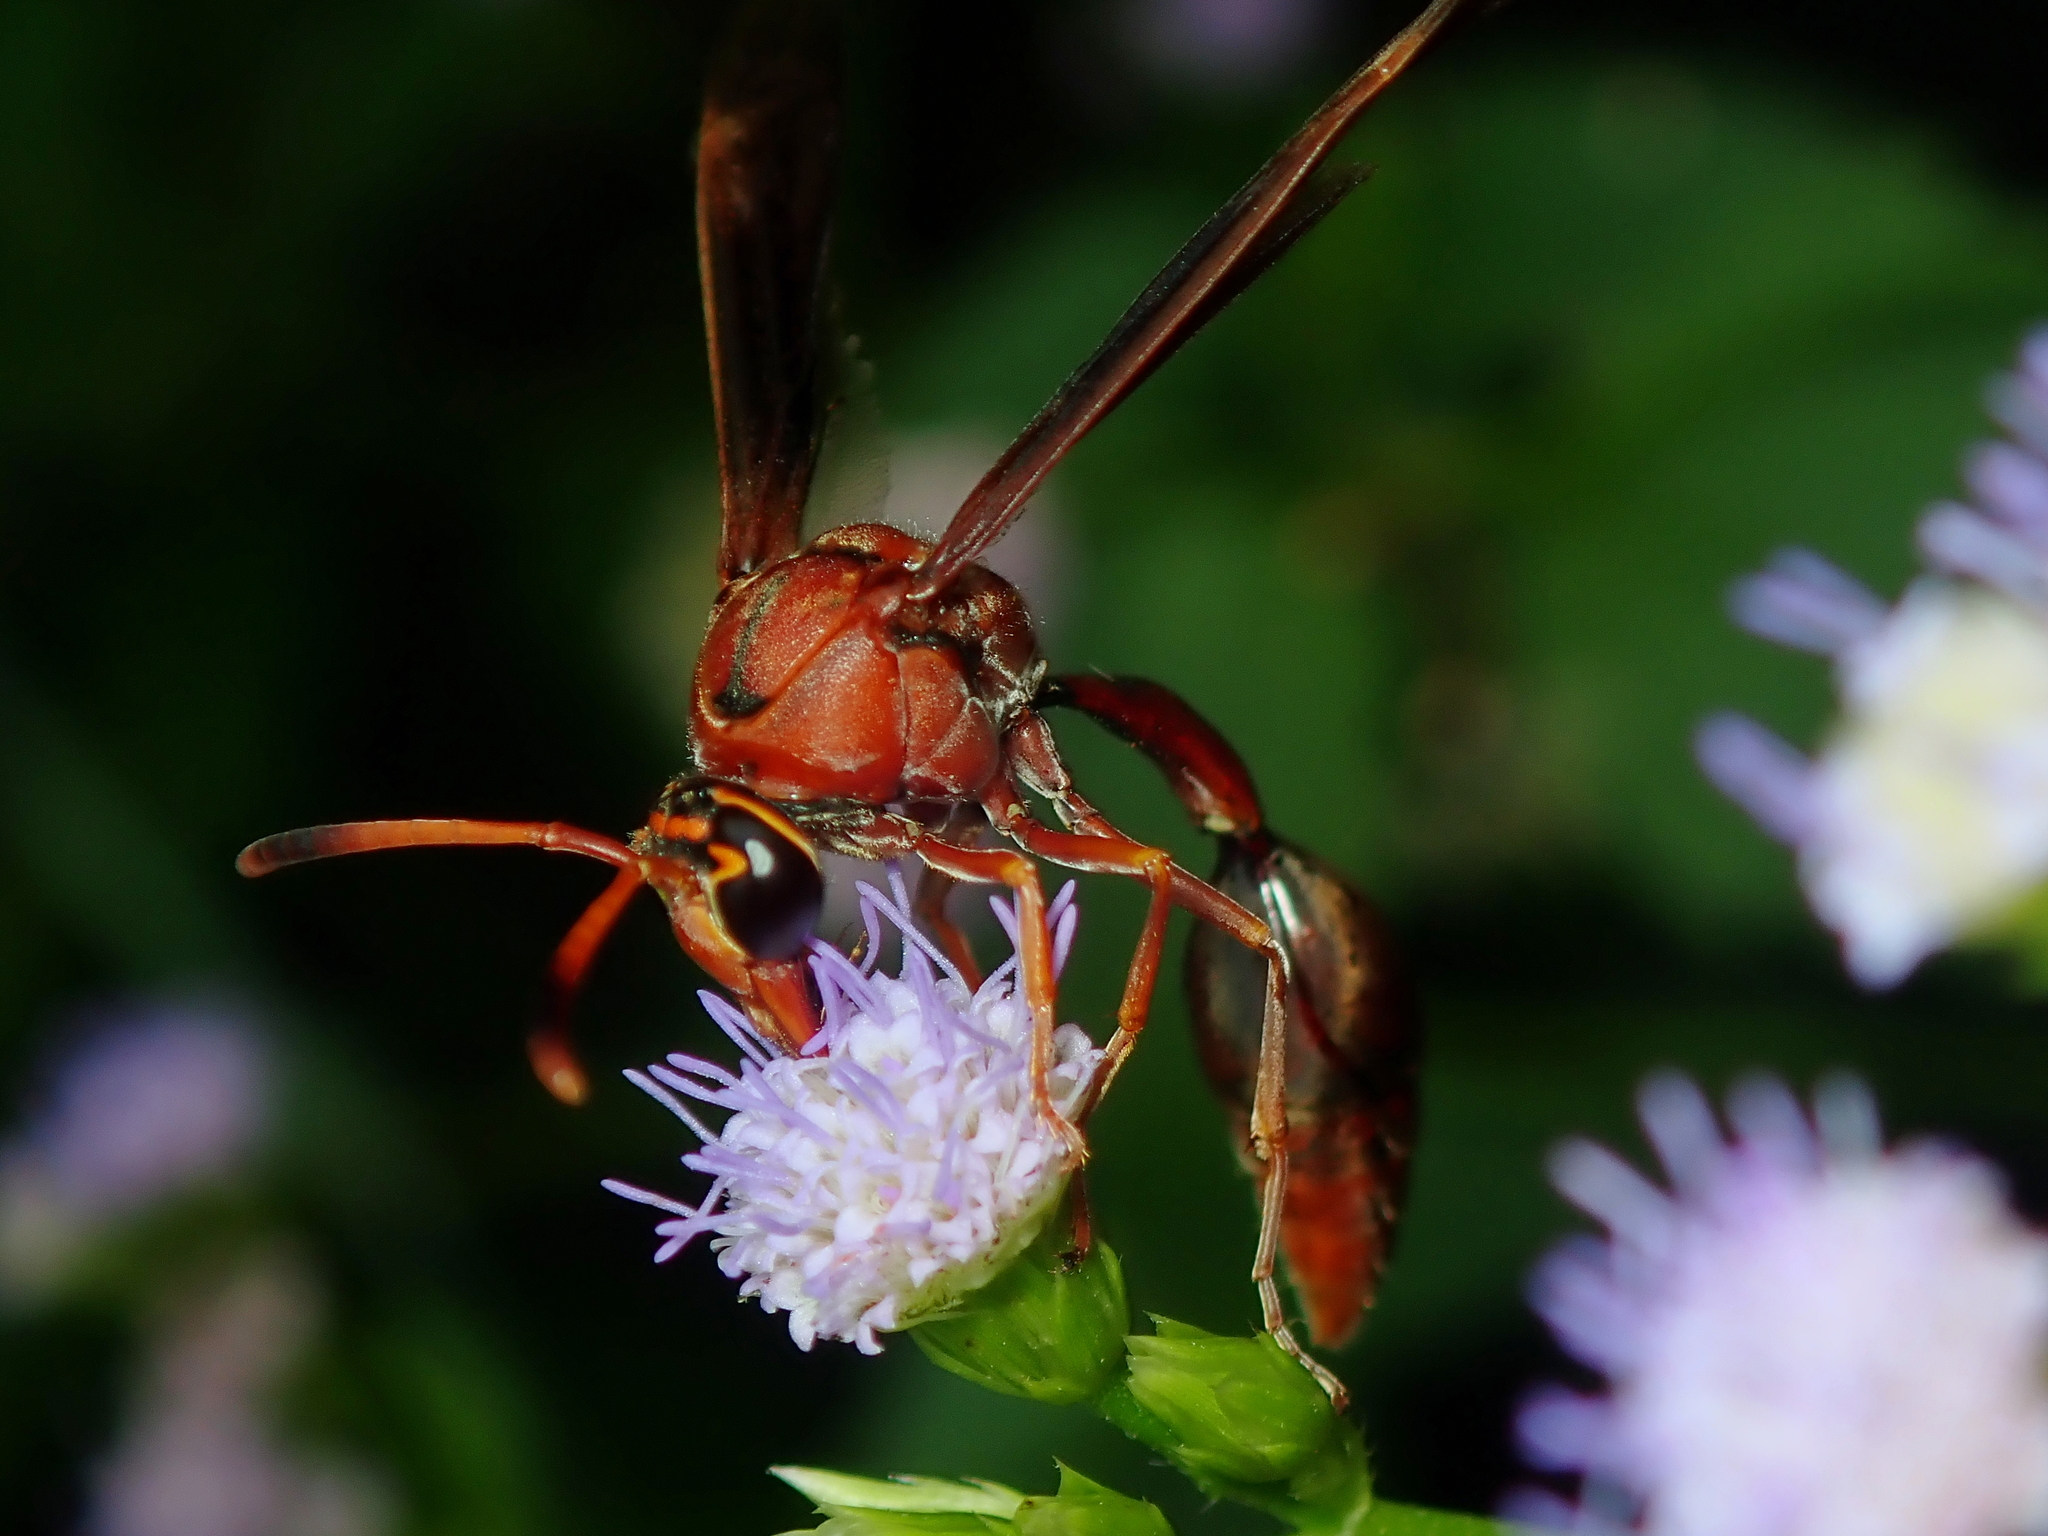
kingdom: Animalia
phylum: Arthropoda
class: Insecta
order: Hymenoptera
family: Eumenidae
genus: Zeta
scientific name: Zeta argillaceum
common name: Potter wasp
